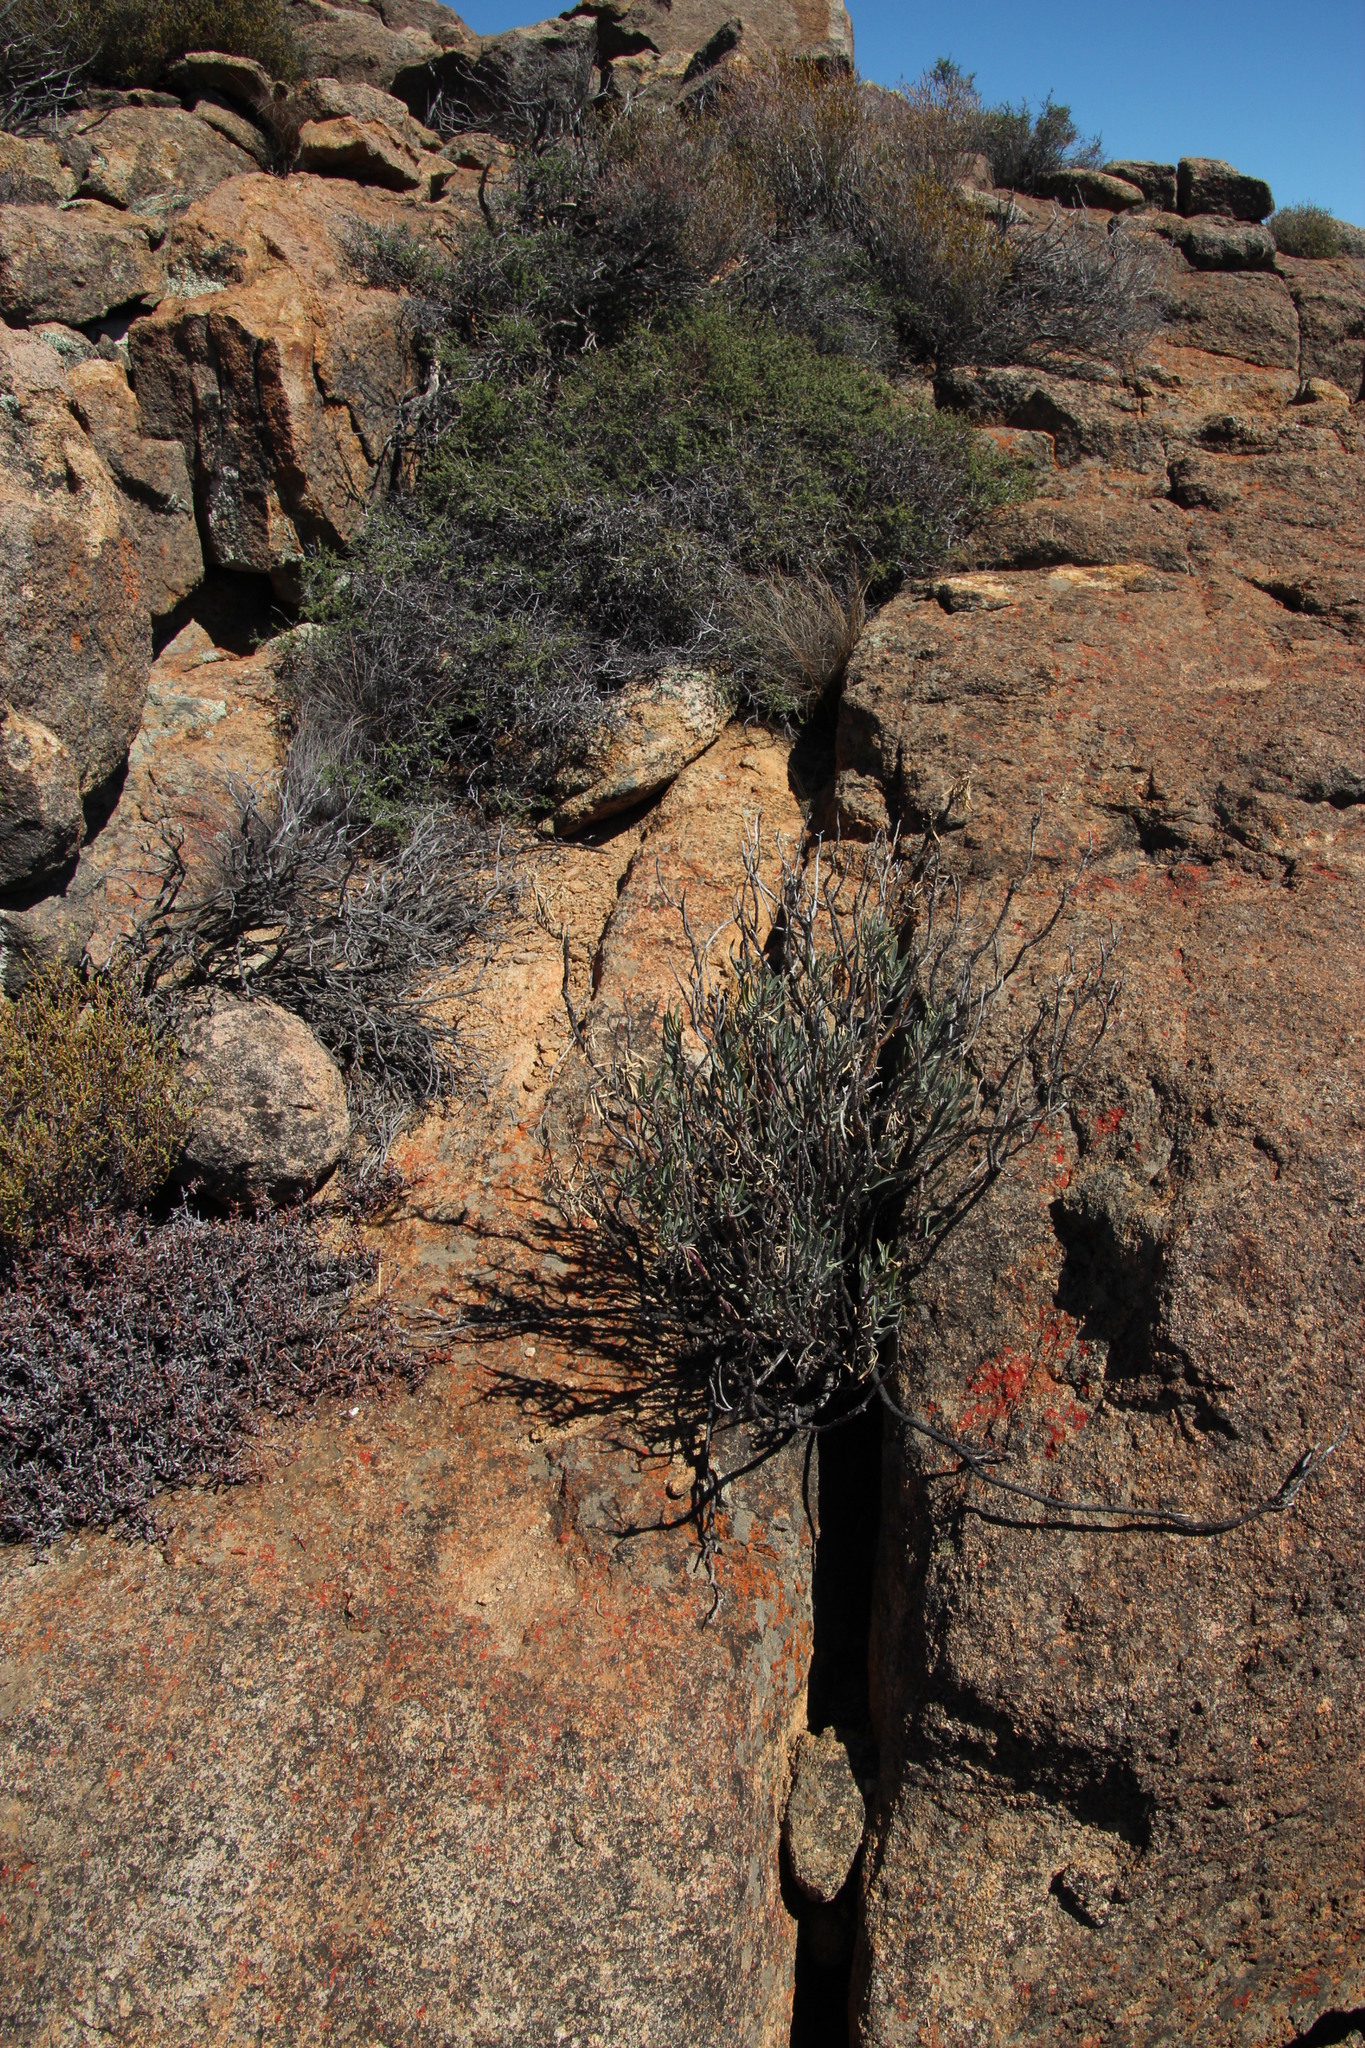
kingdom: Plantae
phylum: Tracheophyta
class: Magnoliopsida
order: Asterales
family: Asteraceae
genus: Lopholaena
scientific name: Lopholaena cneorifolia
